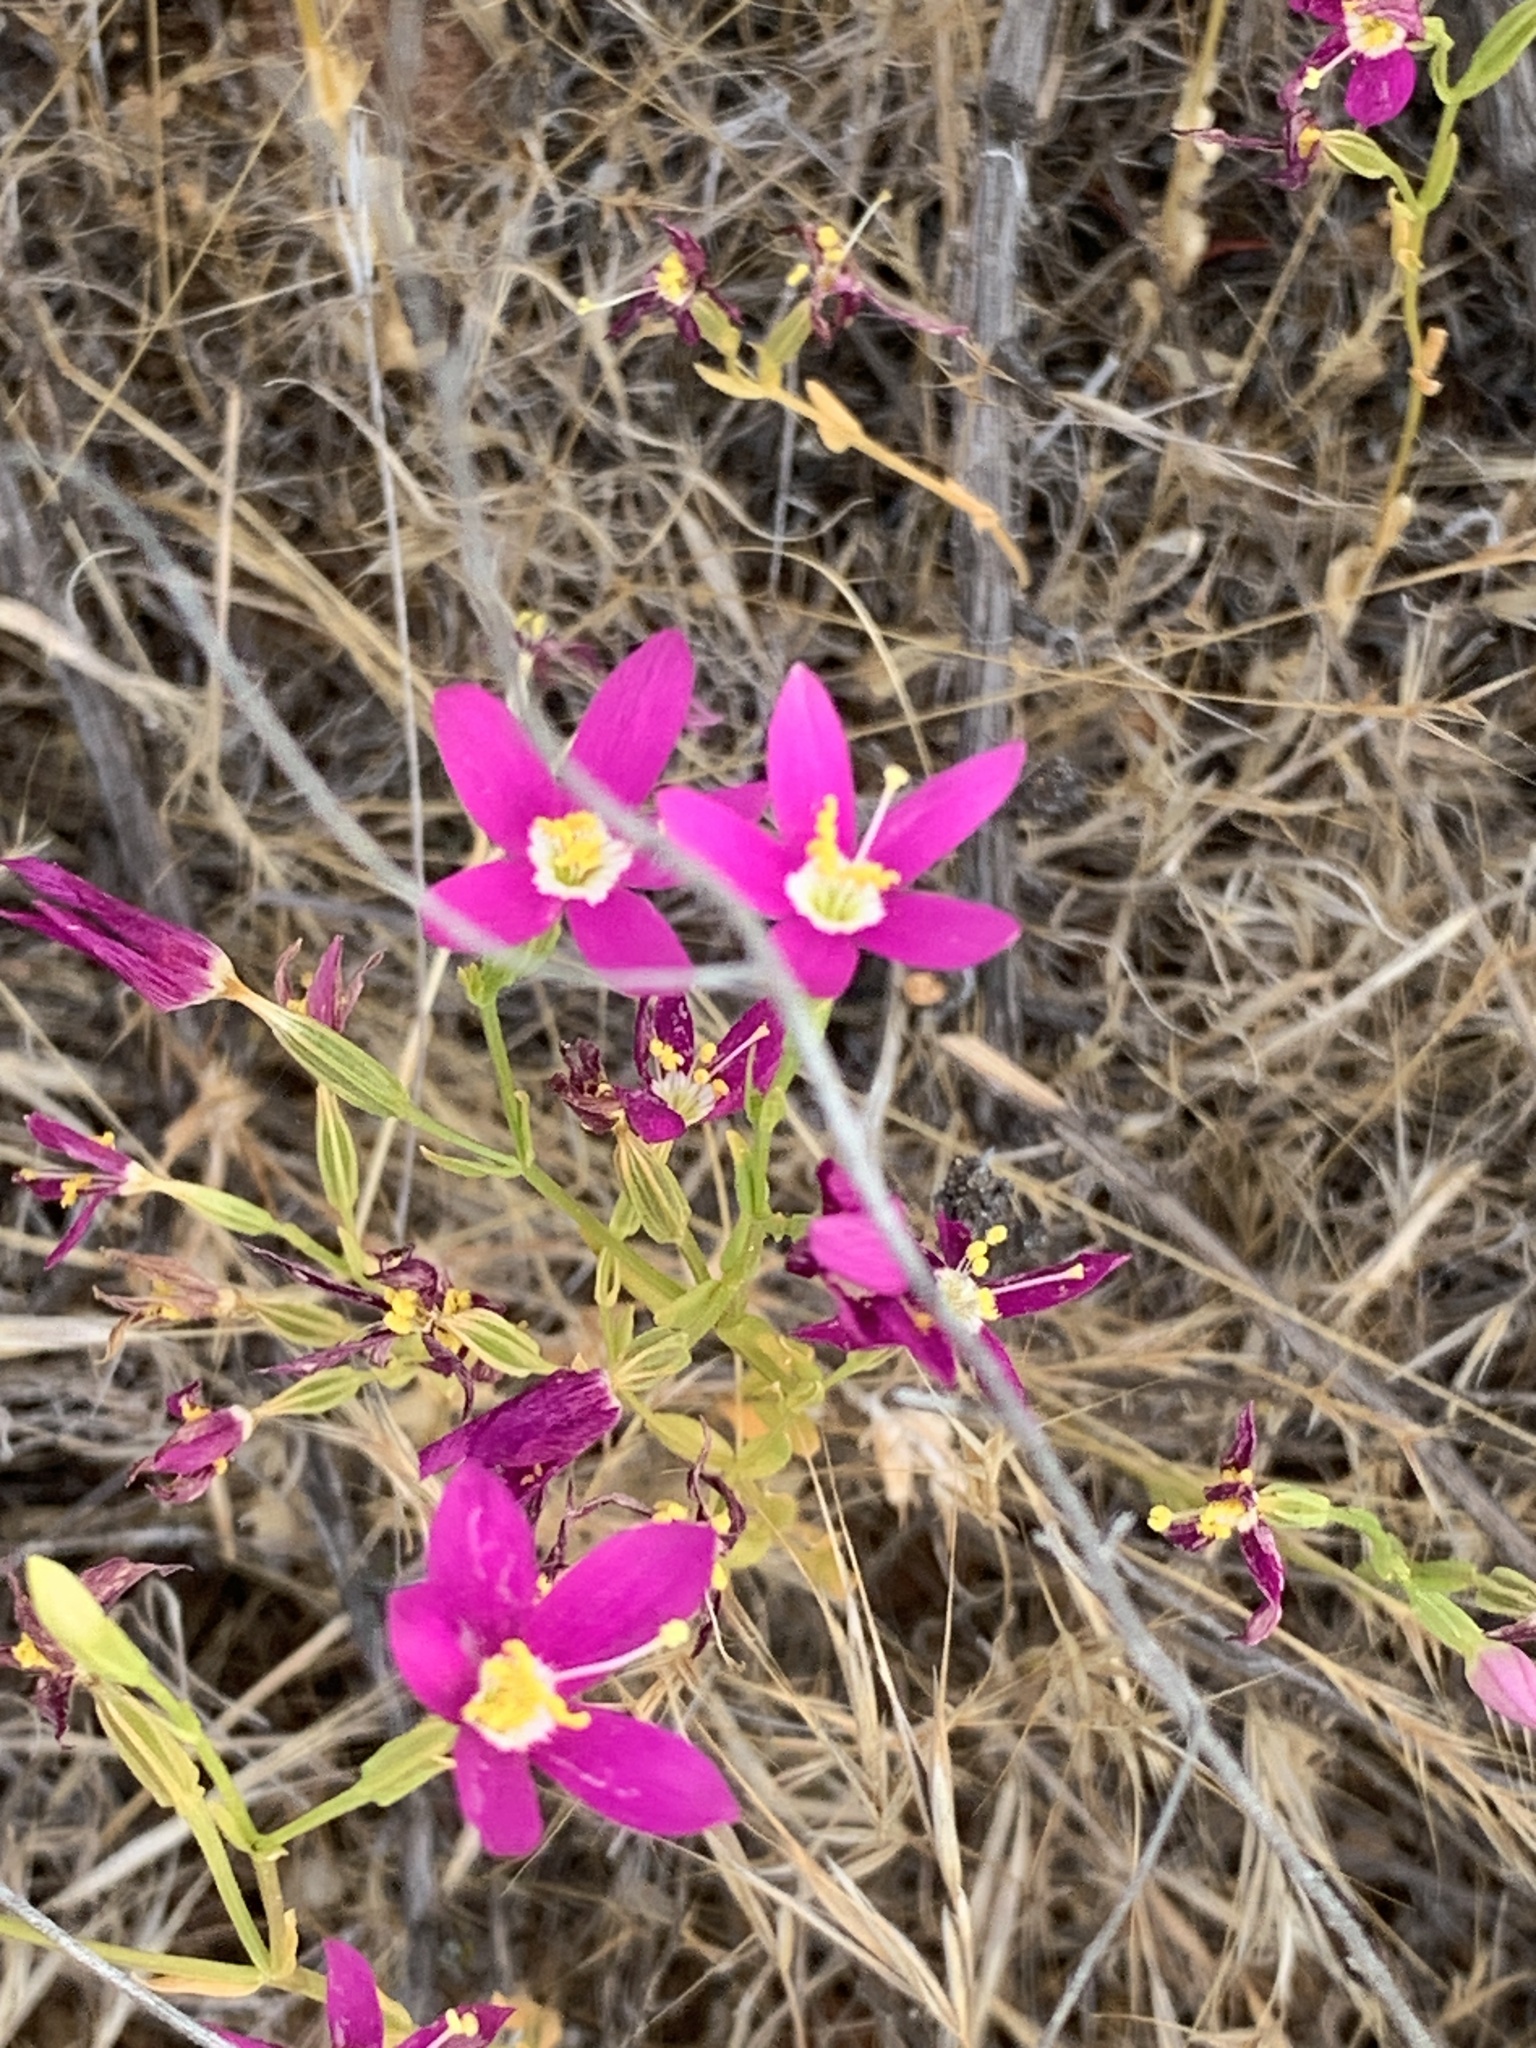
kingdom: Plantae
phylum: Tracheophyta
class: Magnoliopsida
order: Gentianales
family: Gentianaceae
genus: Zeltnera
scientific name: Zeltnera venusta
